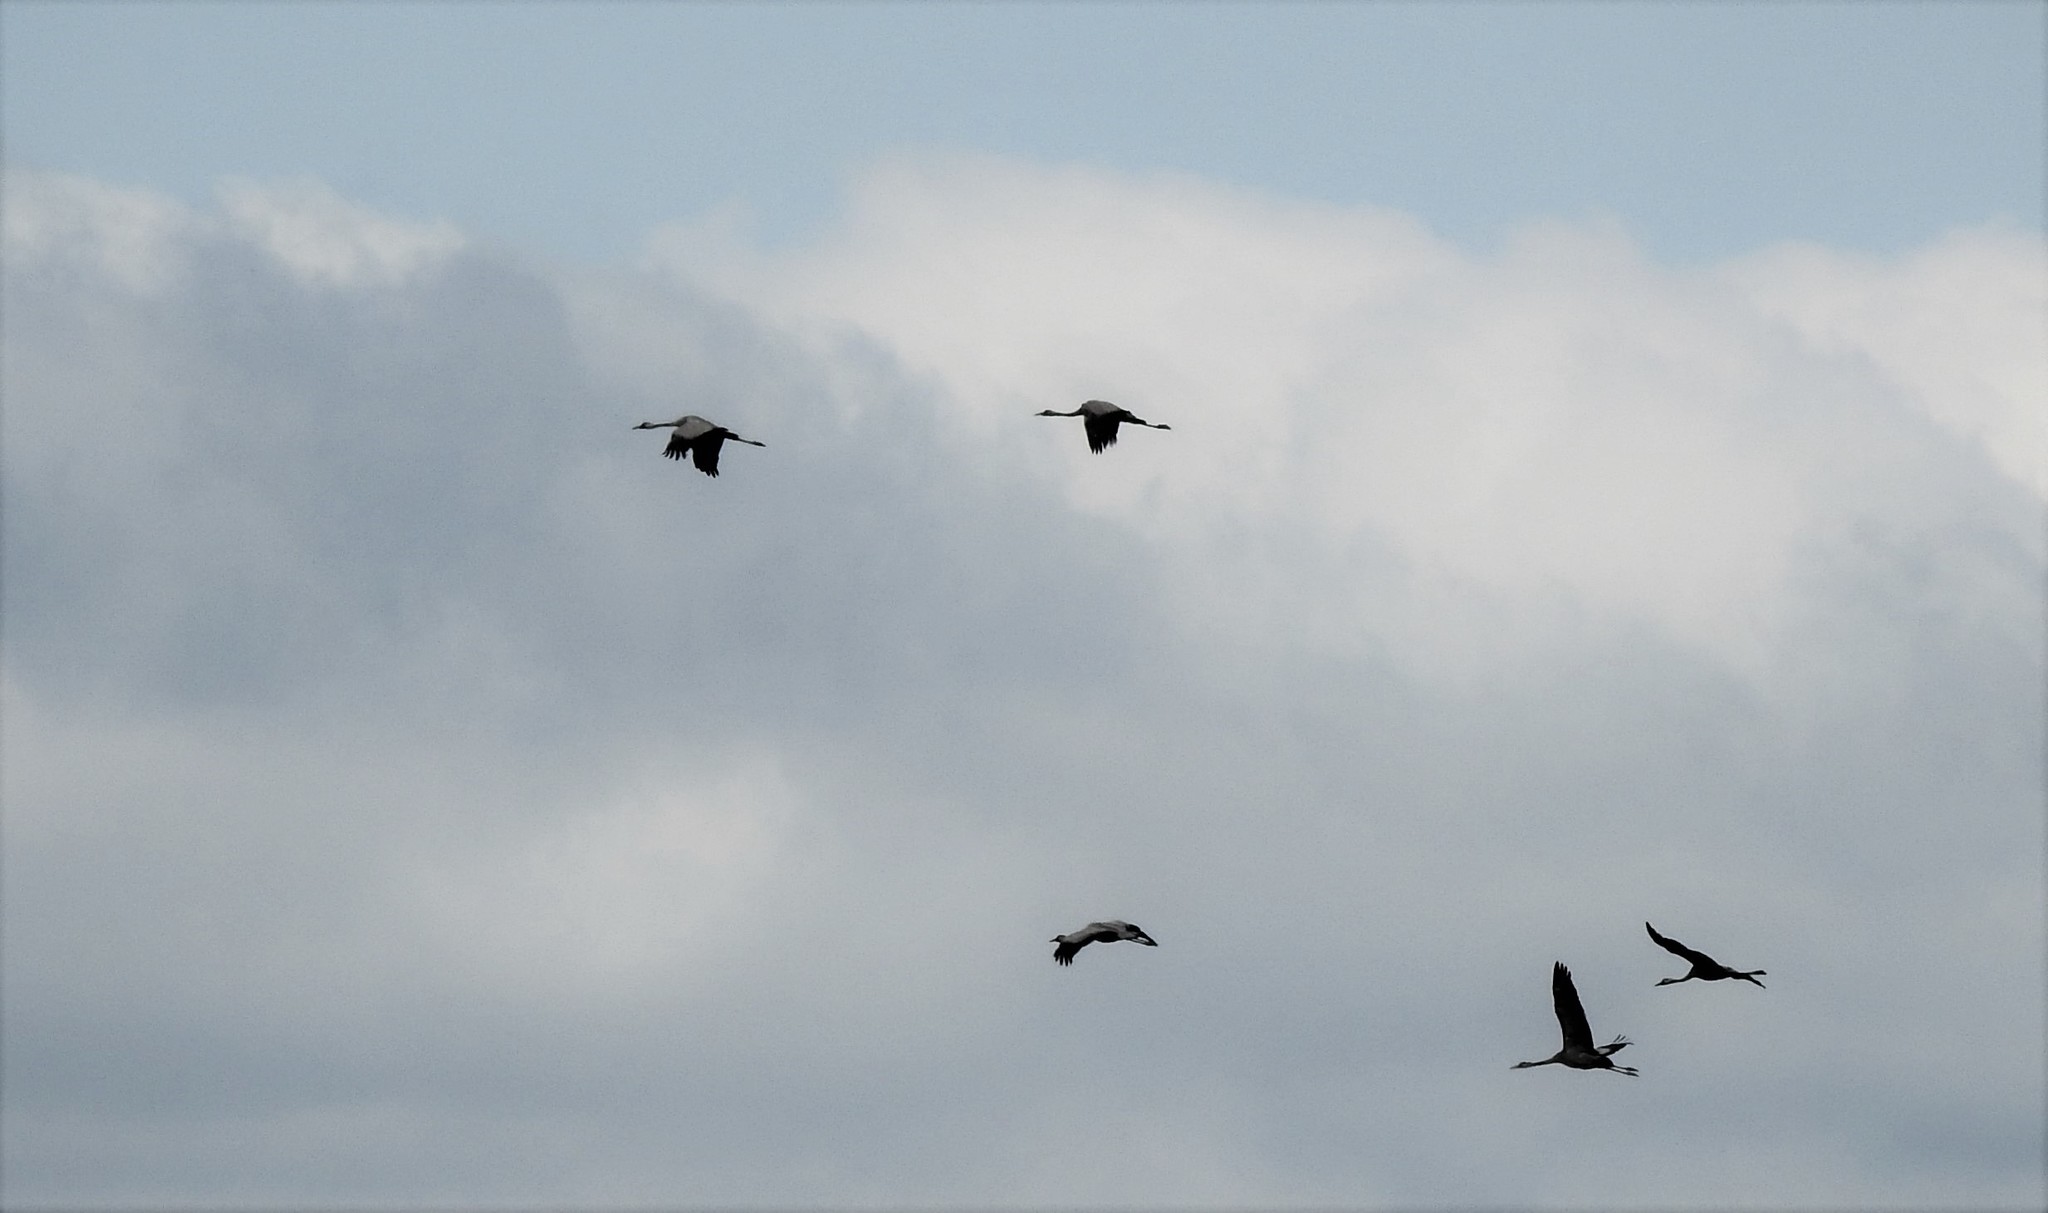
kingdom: Animalia
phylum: Chordata
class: Aves
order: Gruiformes
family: Gruidae
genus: Grus
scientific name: Grus grus
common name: Common crane
